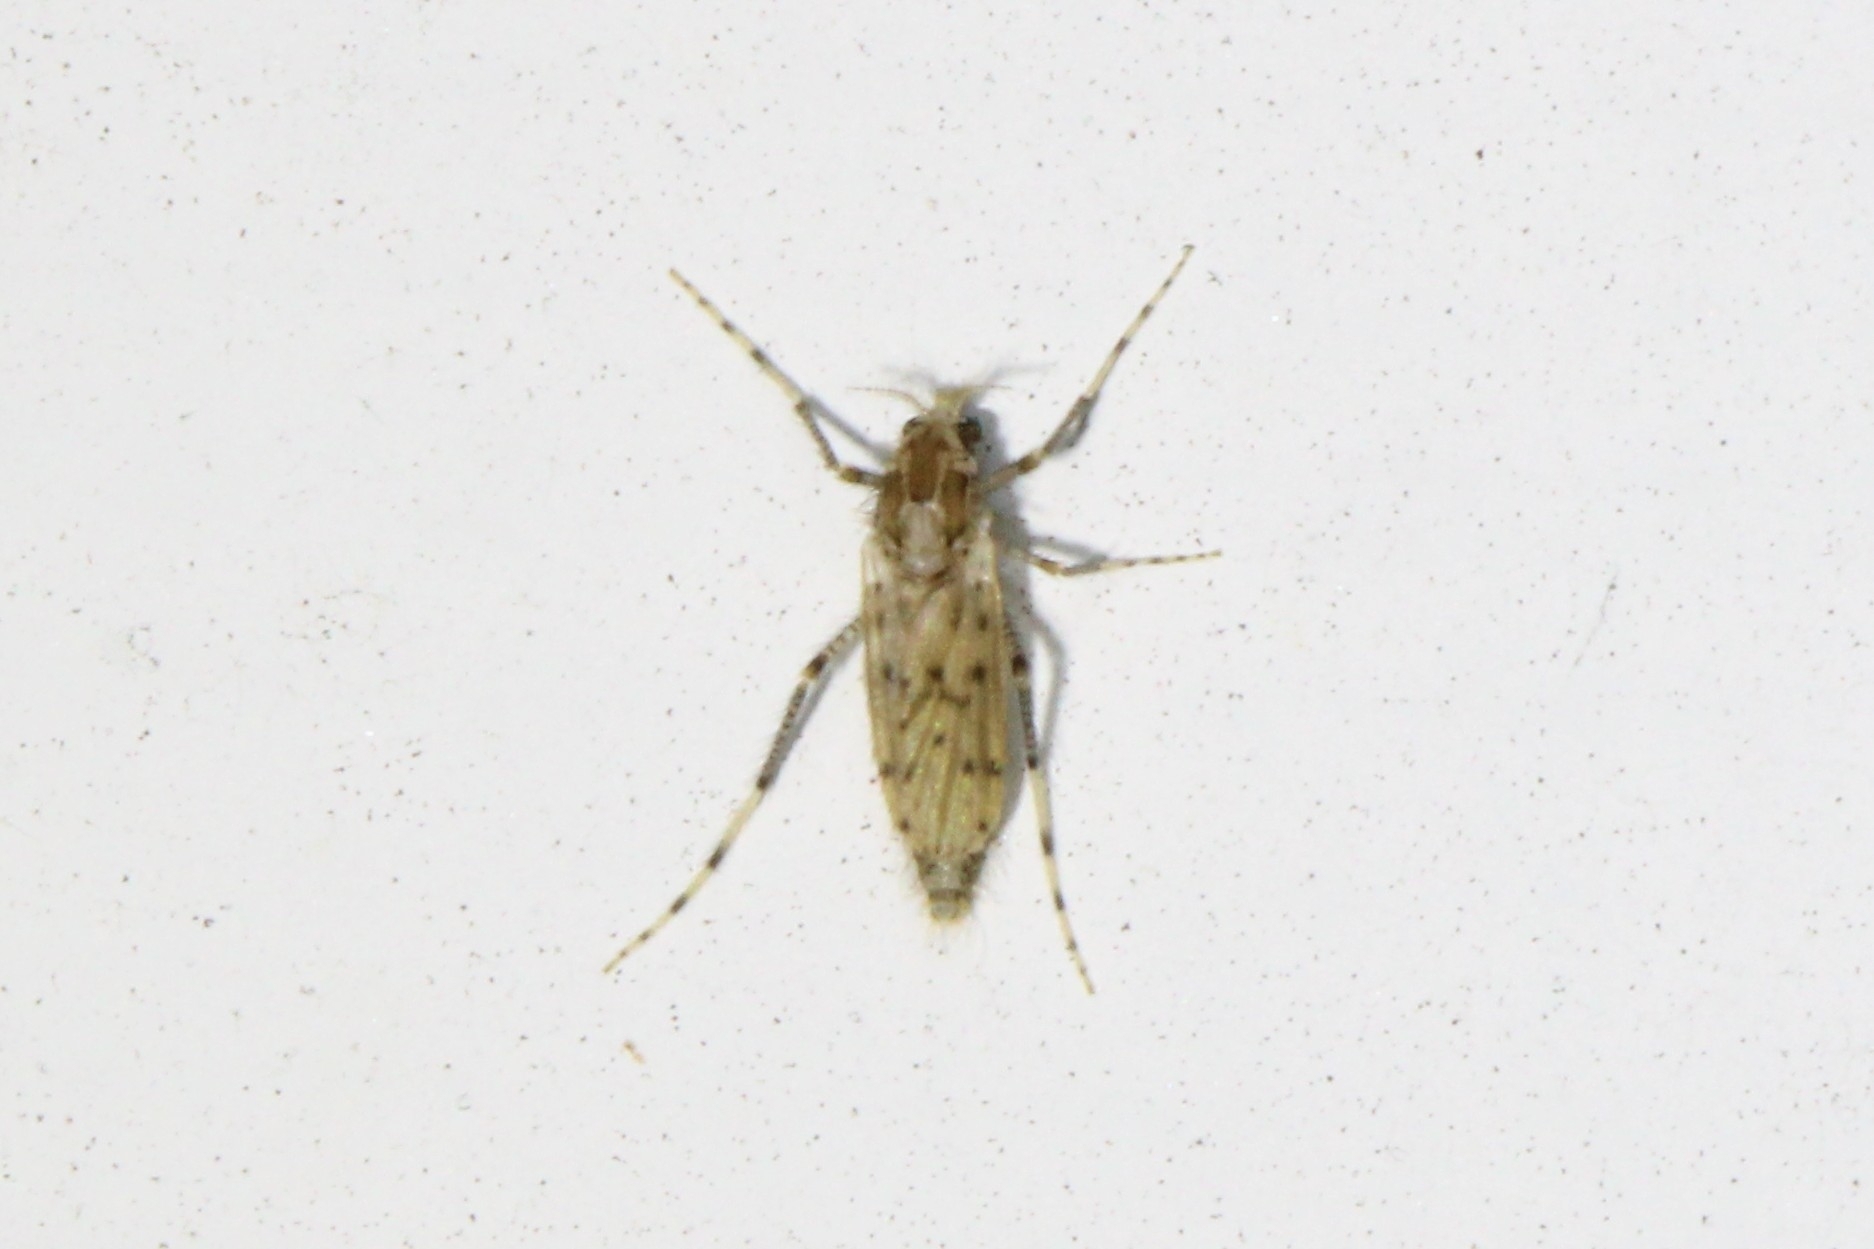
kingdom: Animalia
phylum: Arthropoda
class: Insecta
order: Diptera
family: Chaoboridae
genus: Chaoborus
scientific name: Chaoborus punctipennis
